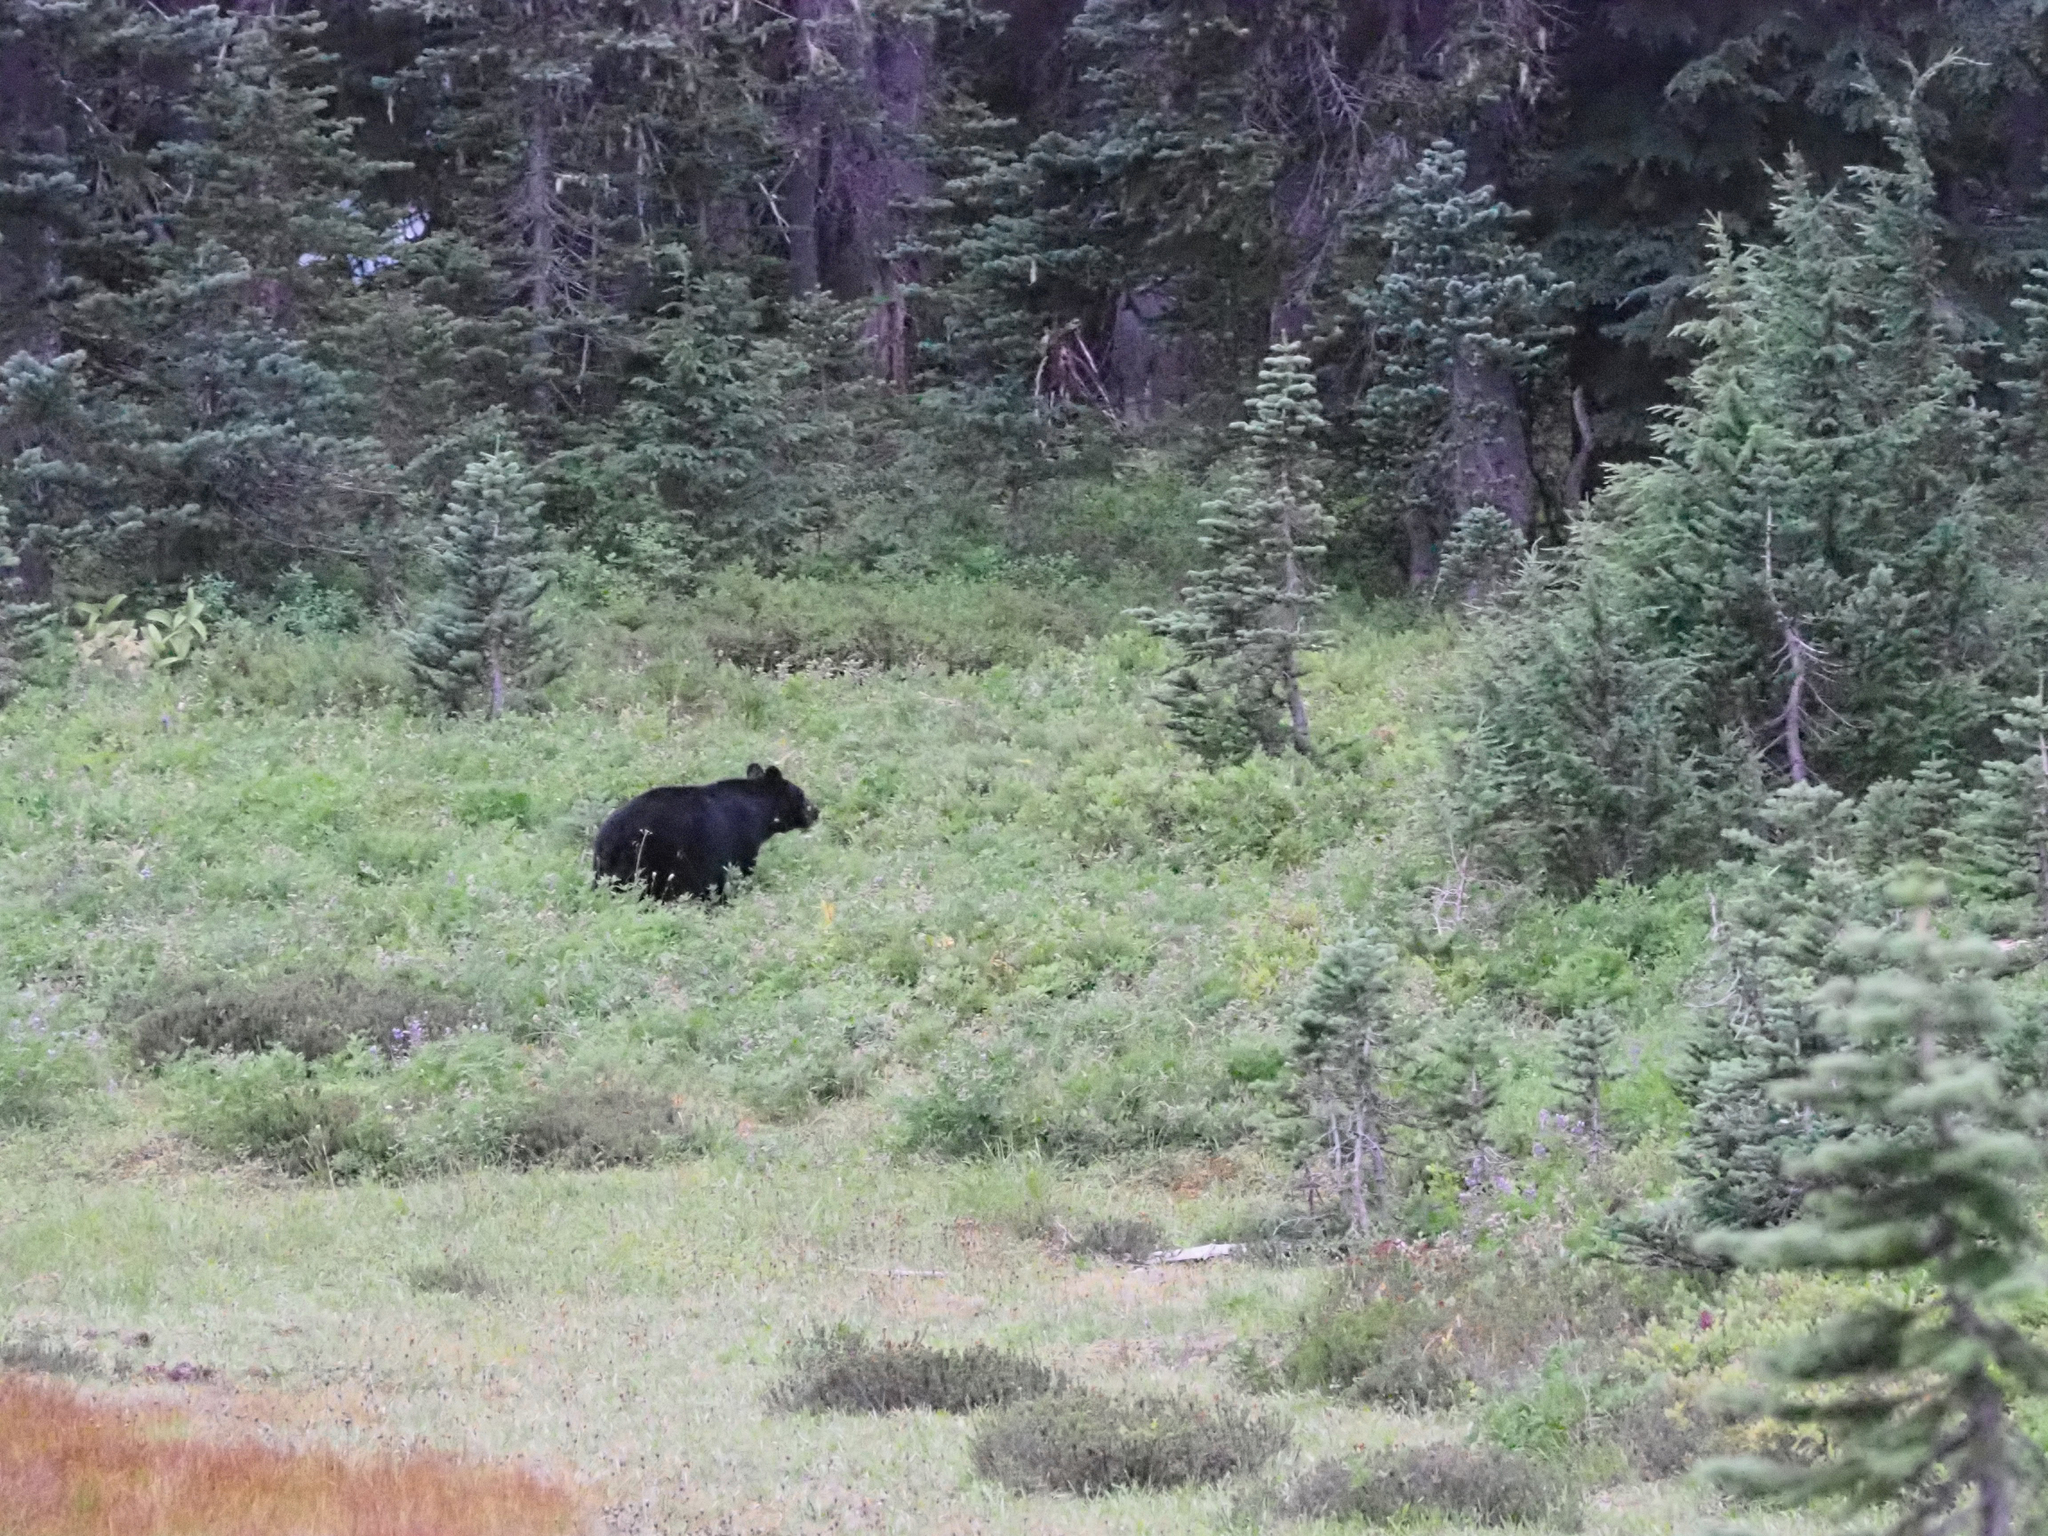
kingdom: Animalia
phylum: Chordata
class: Mammalia
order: Carnivora
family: Ursidae
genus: Ursus
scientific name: Ursus americanus
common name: American black bear
